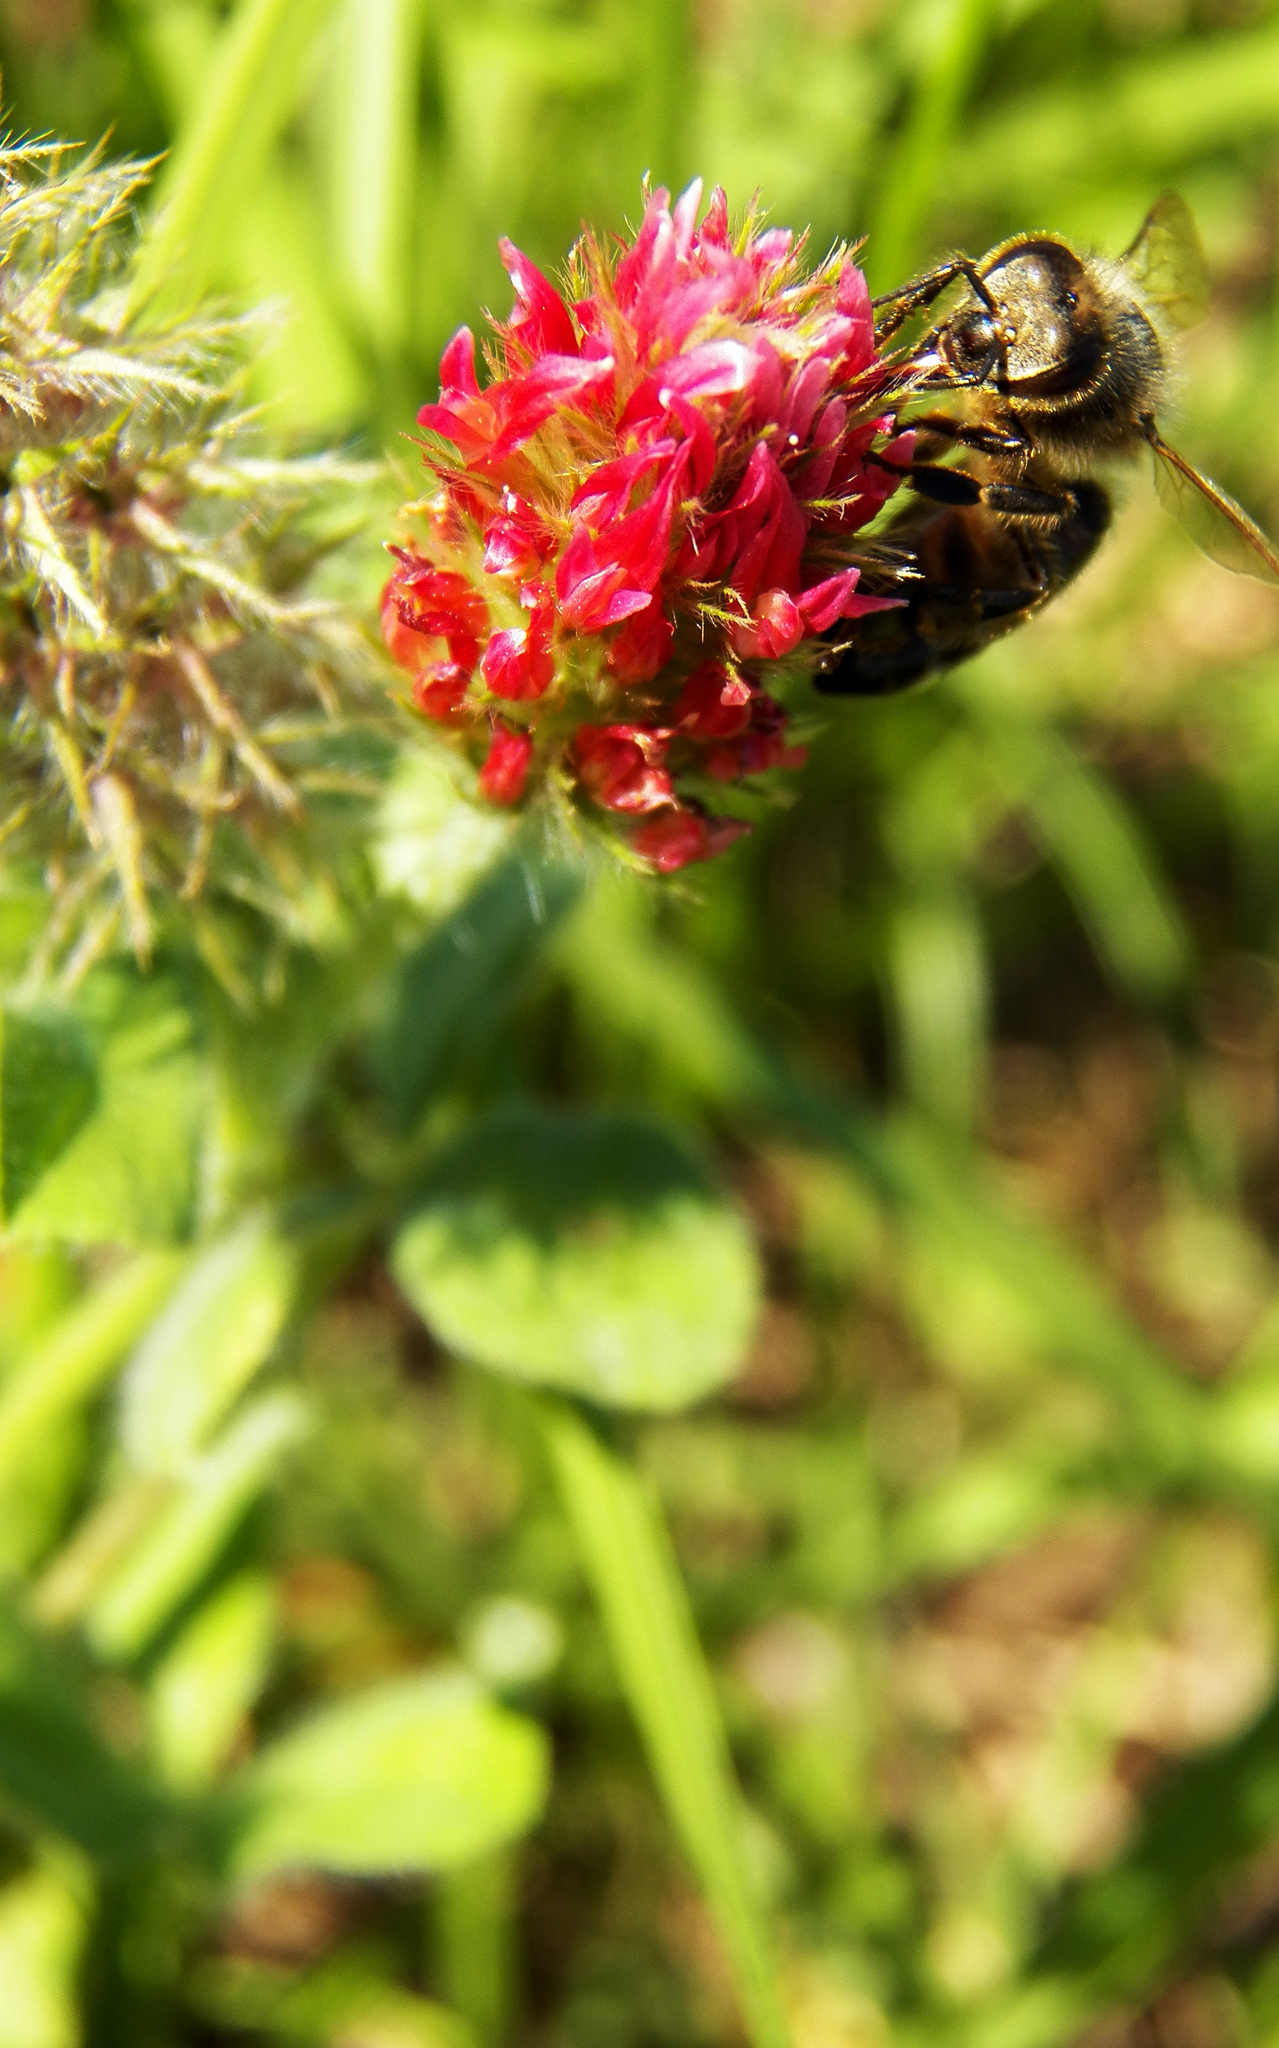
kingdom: Plantae
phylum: Tracheophyta
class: Magnoliopsida
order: Fabales
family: Fabaceae
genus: Trifolium
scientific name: Trifolium incarnatum
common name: Crimson clover
